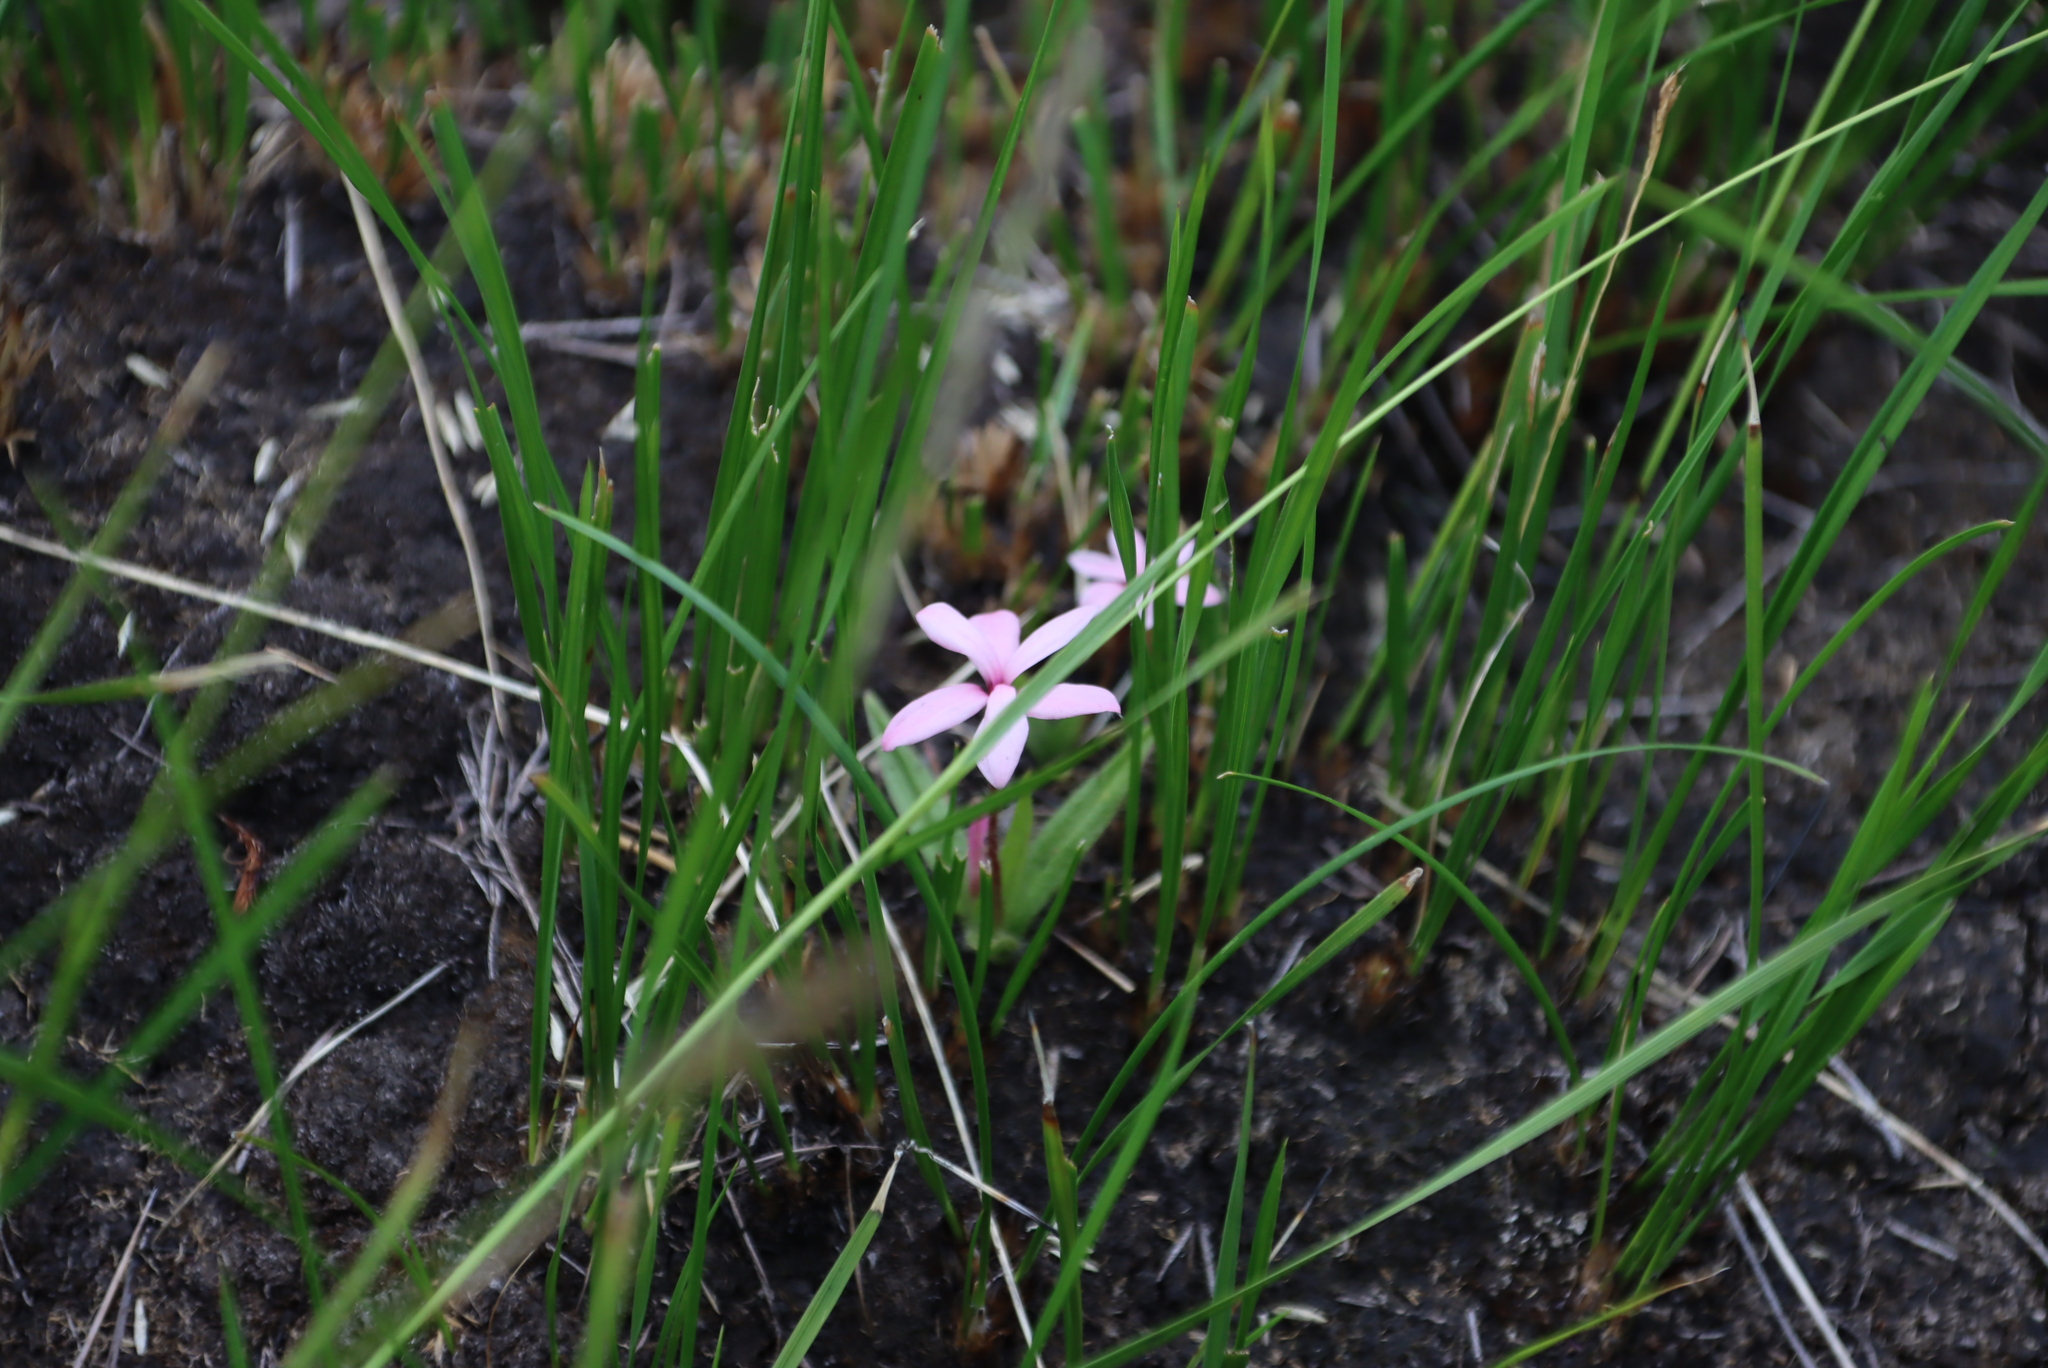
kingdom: Plantae
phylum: Tracheophyta
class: Liliopsida
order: Asparagales
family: Hypoxidaceae
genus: Hypoxis
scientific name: Hypoxis baurii
